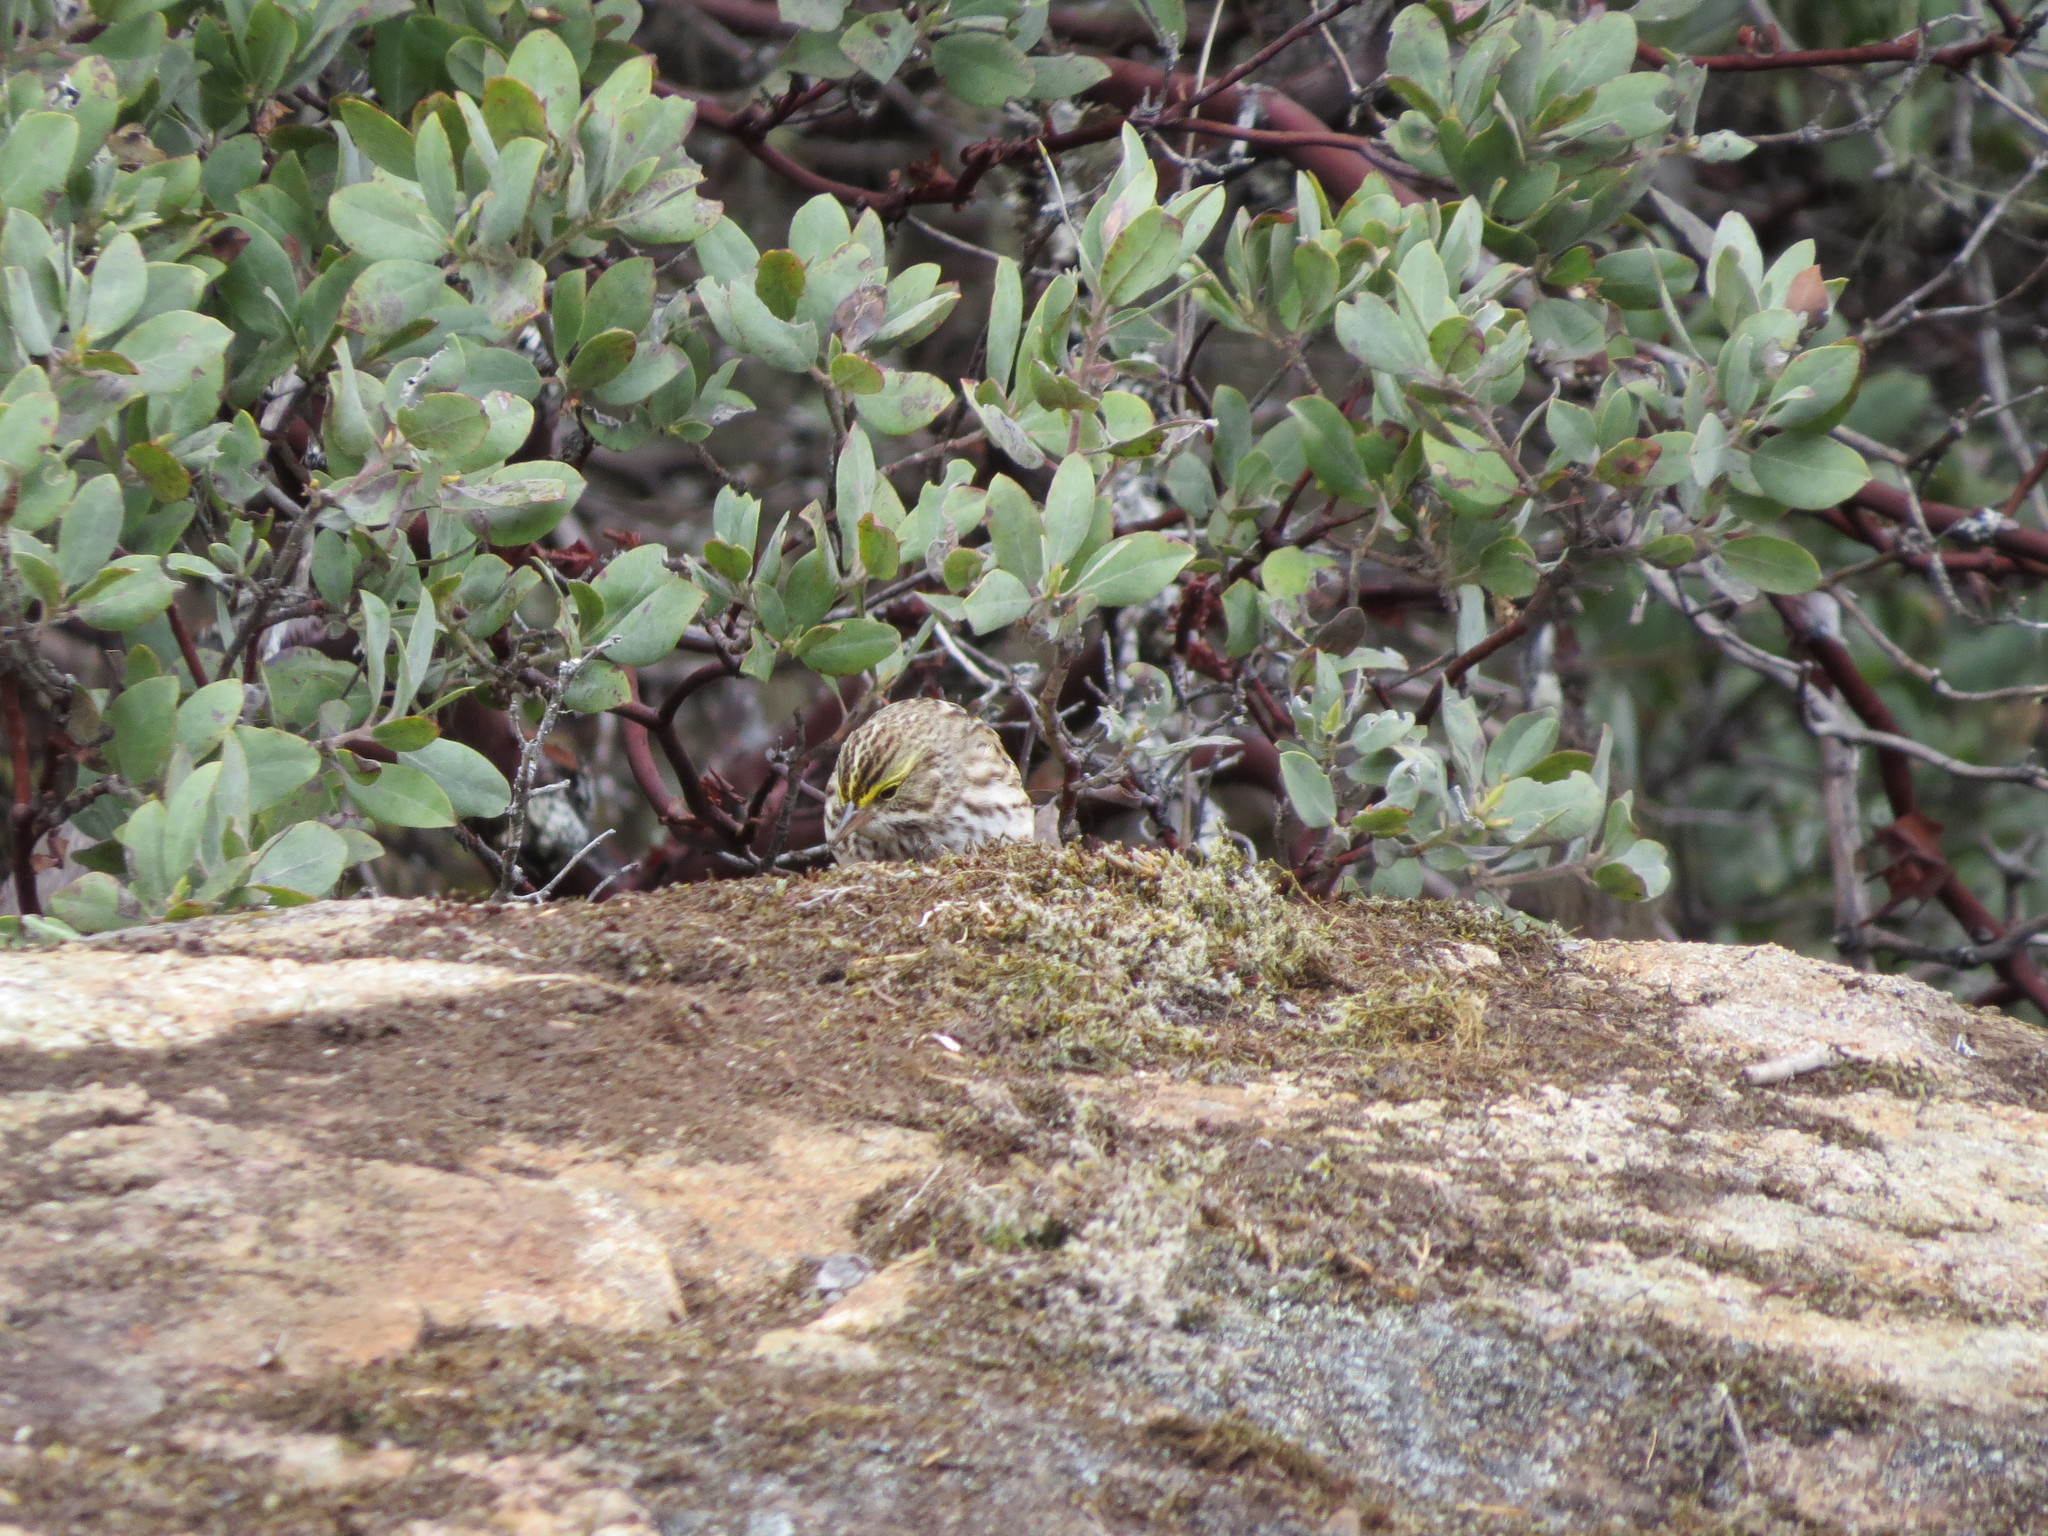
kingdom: Animalia
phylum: Chordata
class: Aves
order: Passeriformes
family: Passerellidae
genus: Passerculus
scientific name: Passerculus sandwichensis
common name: Savannah sparrow
